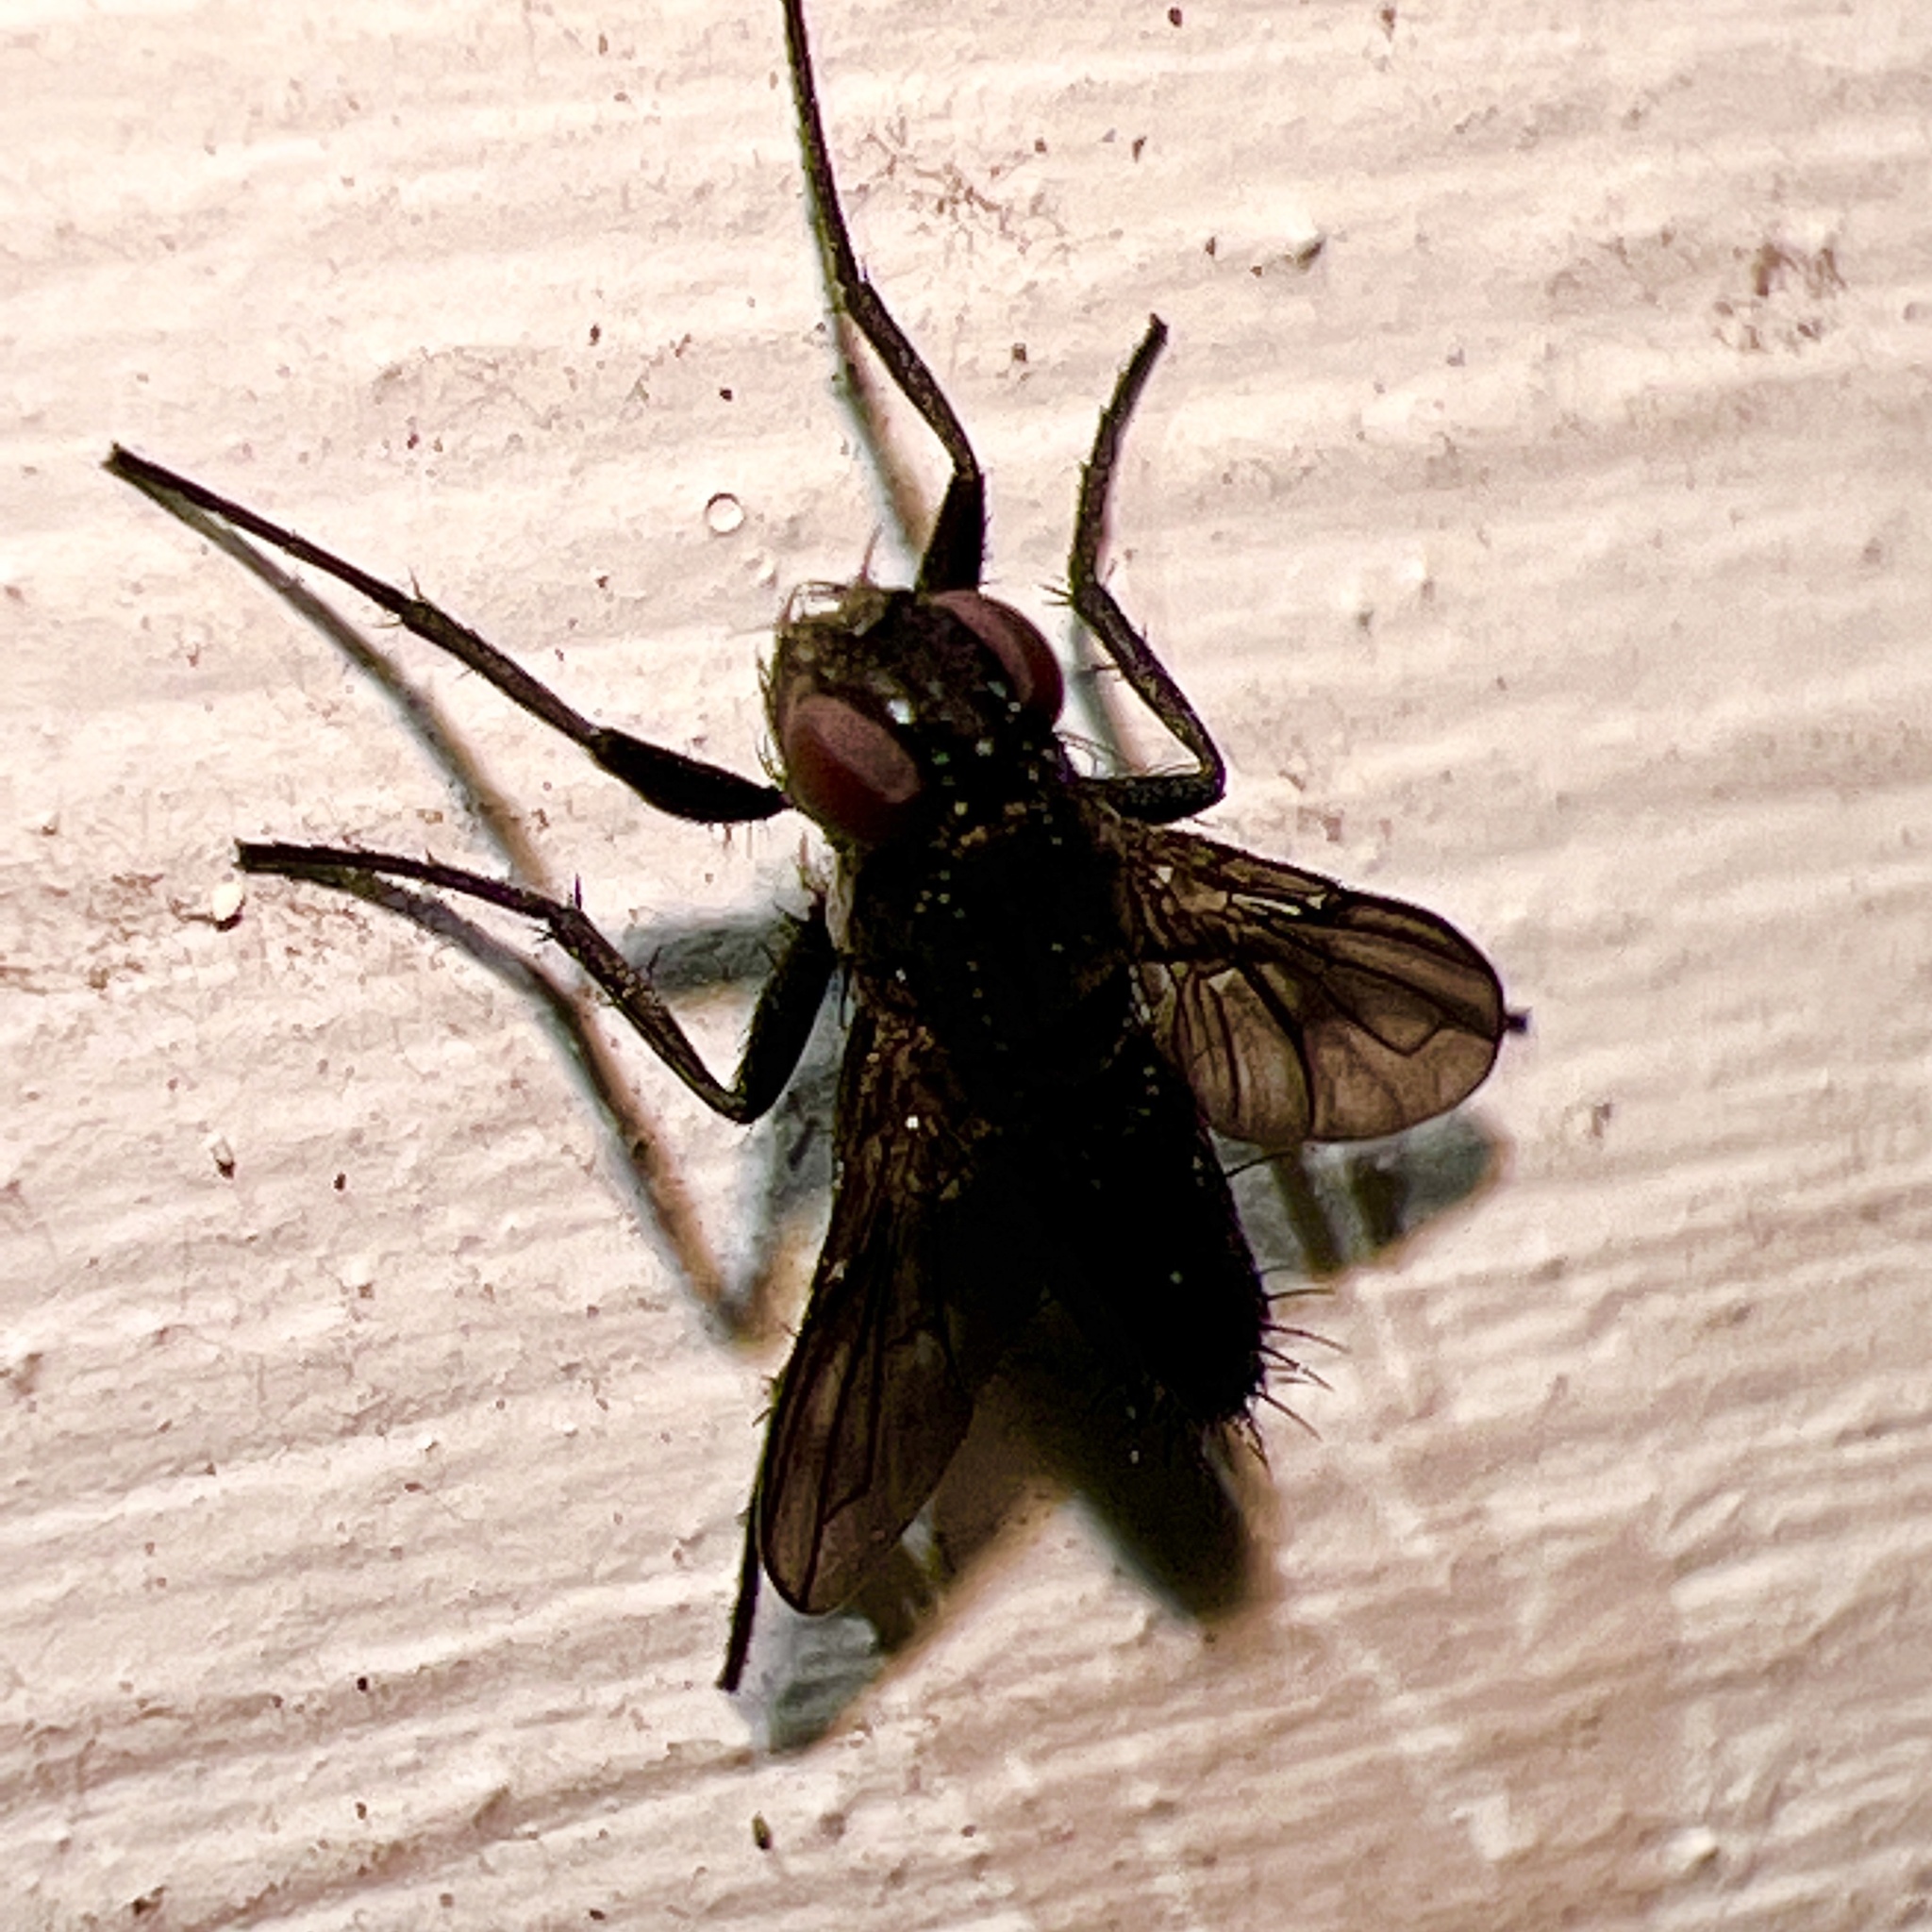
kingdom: Animalia
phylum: Arthropoda
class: Insecta
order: Diptera
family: Calliphoridae
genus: Melanophora
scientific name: Melanophora roralis
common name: Smoky-winged woodlouse-fly
